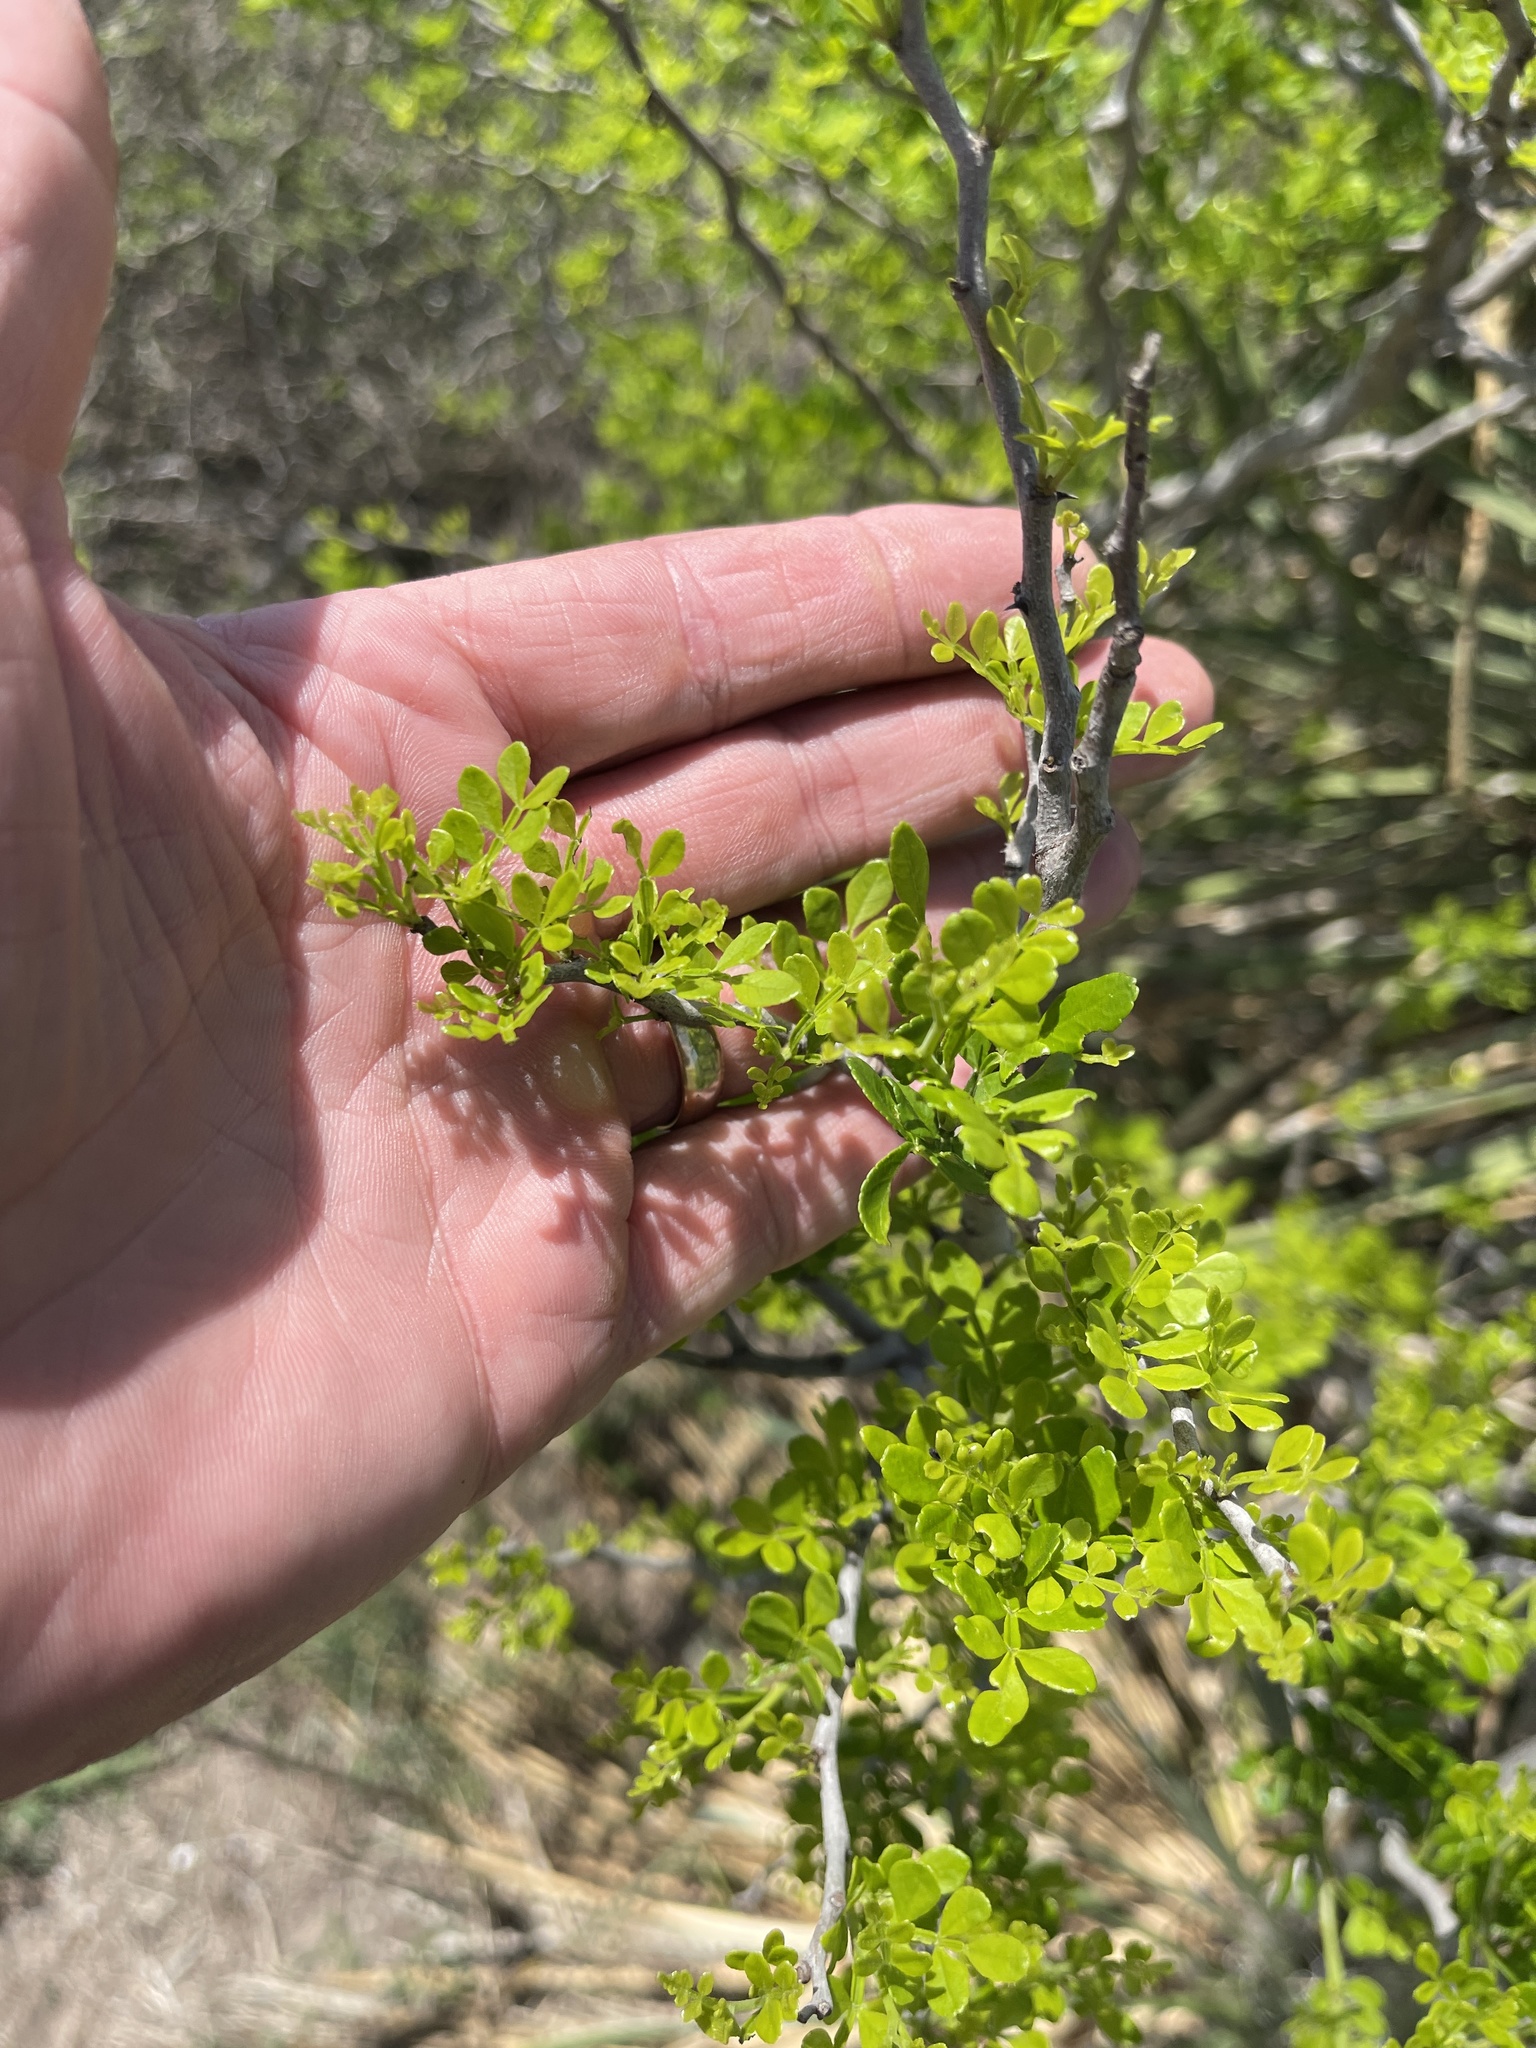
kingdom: Plantae
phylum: Tracheophyta
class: Magnoliopsida
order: Sapindales
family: Rutaceae
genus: Zanthoxylum
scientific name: Zanthoxylum fagara
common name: Lime prickly-ash
